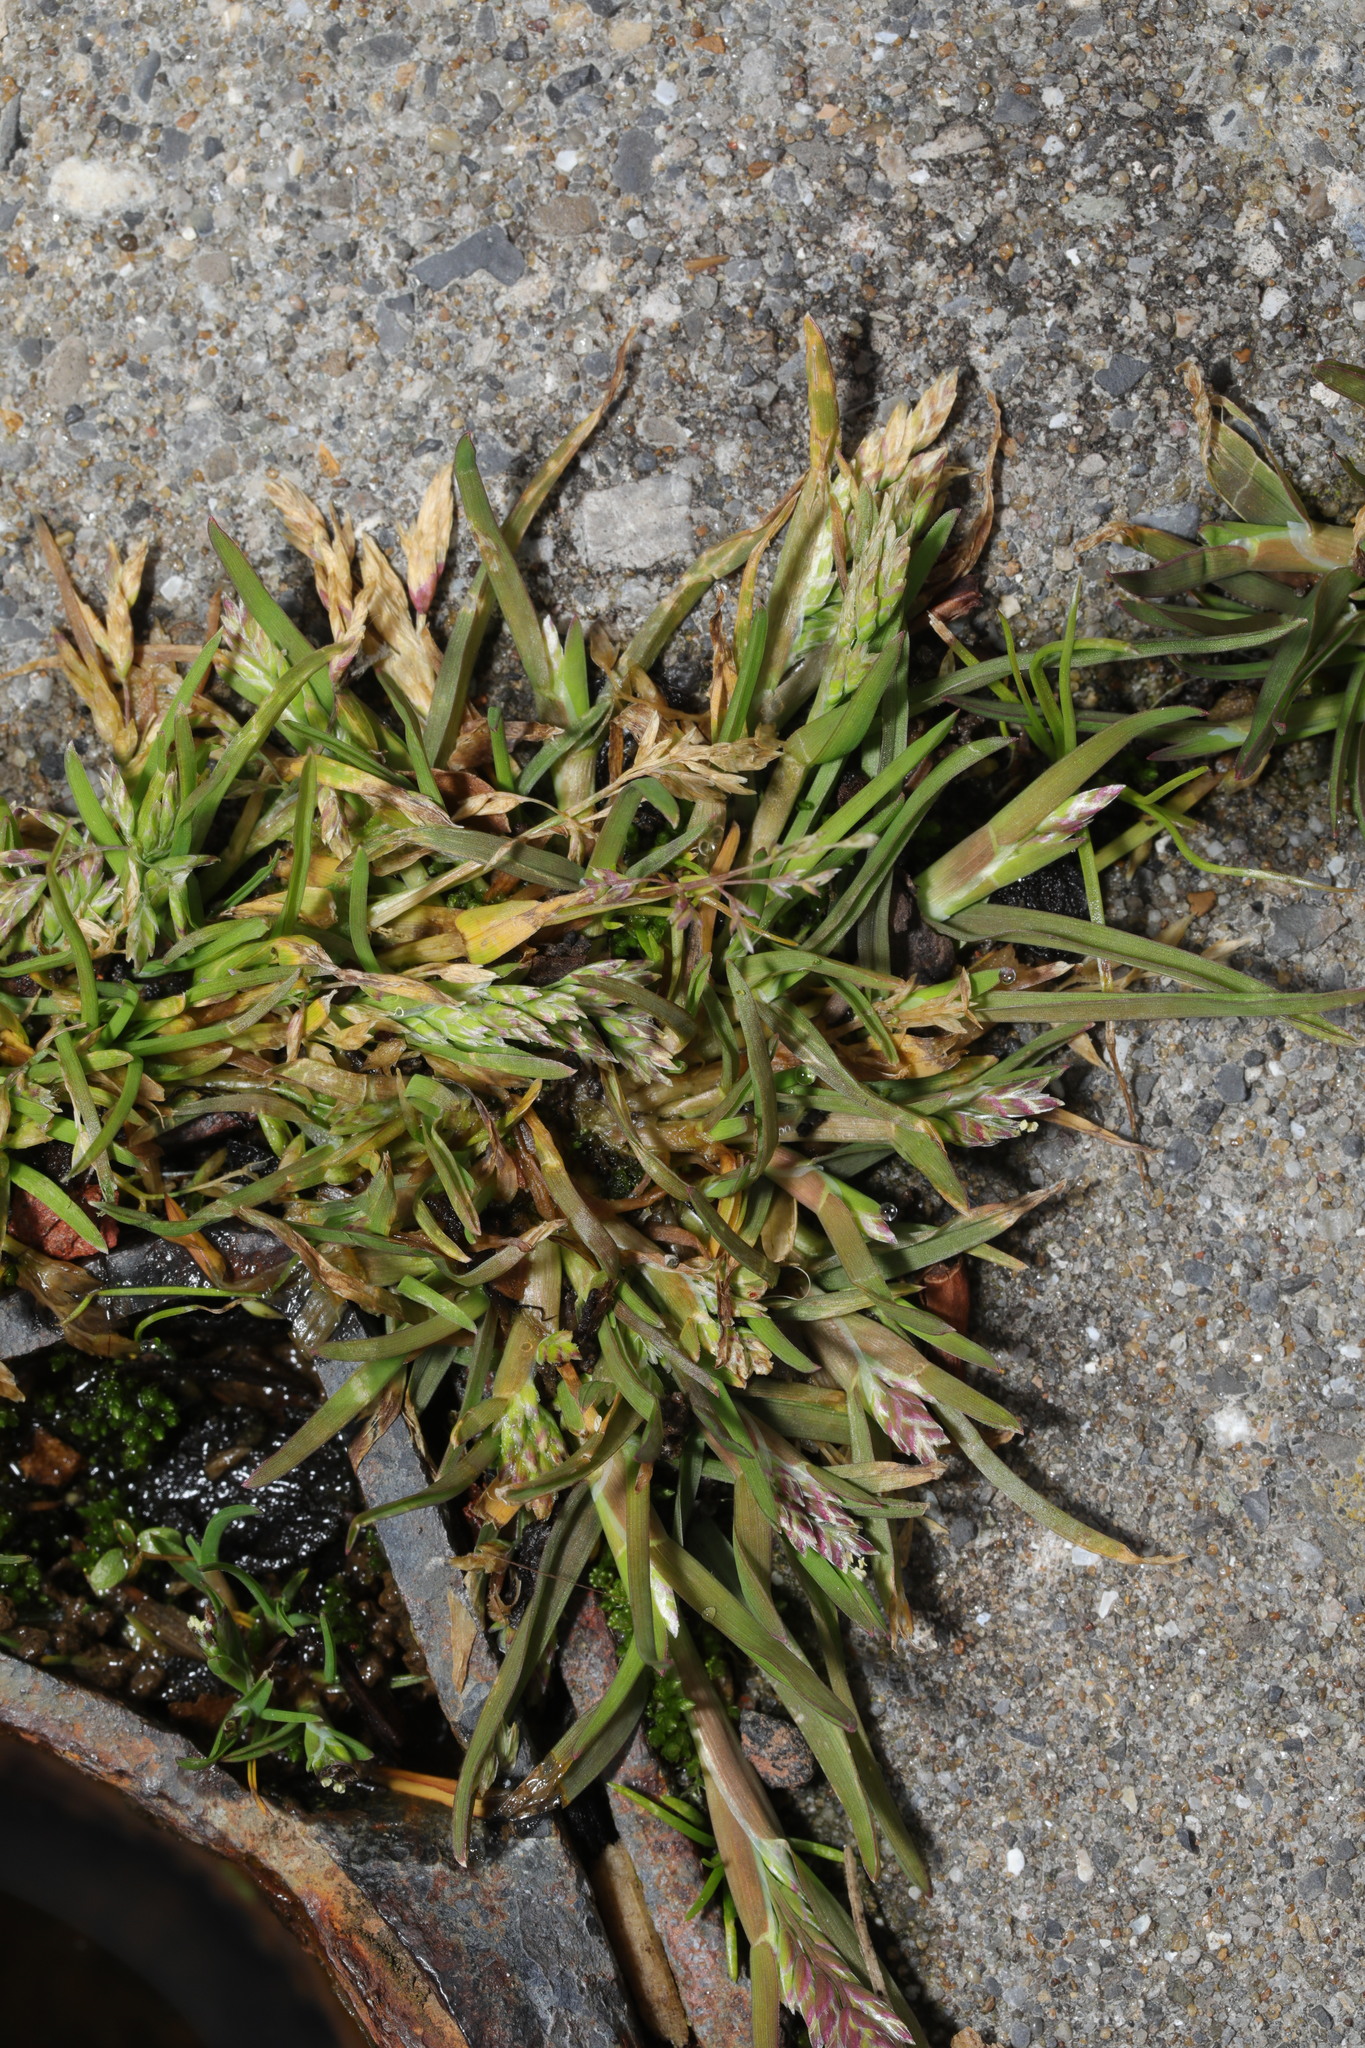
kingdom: Plantae
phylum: Tracheophyta
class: Liliopsida
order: Poales
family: Poaceae
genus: Poa
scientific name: Poa annua
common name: Annual bluegrass
